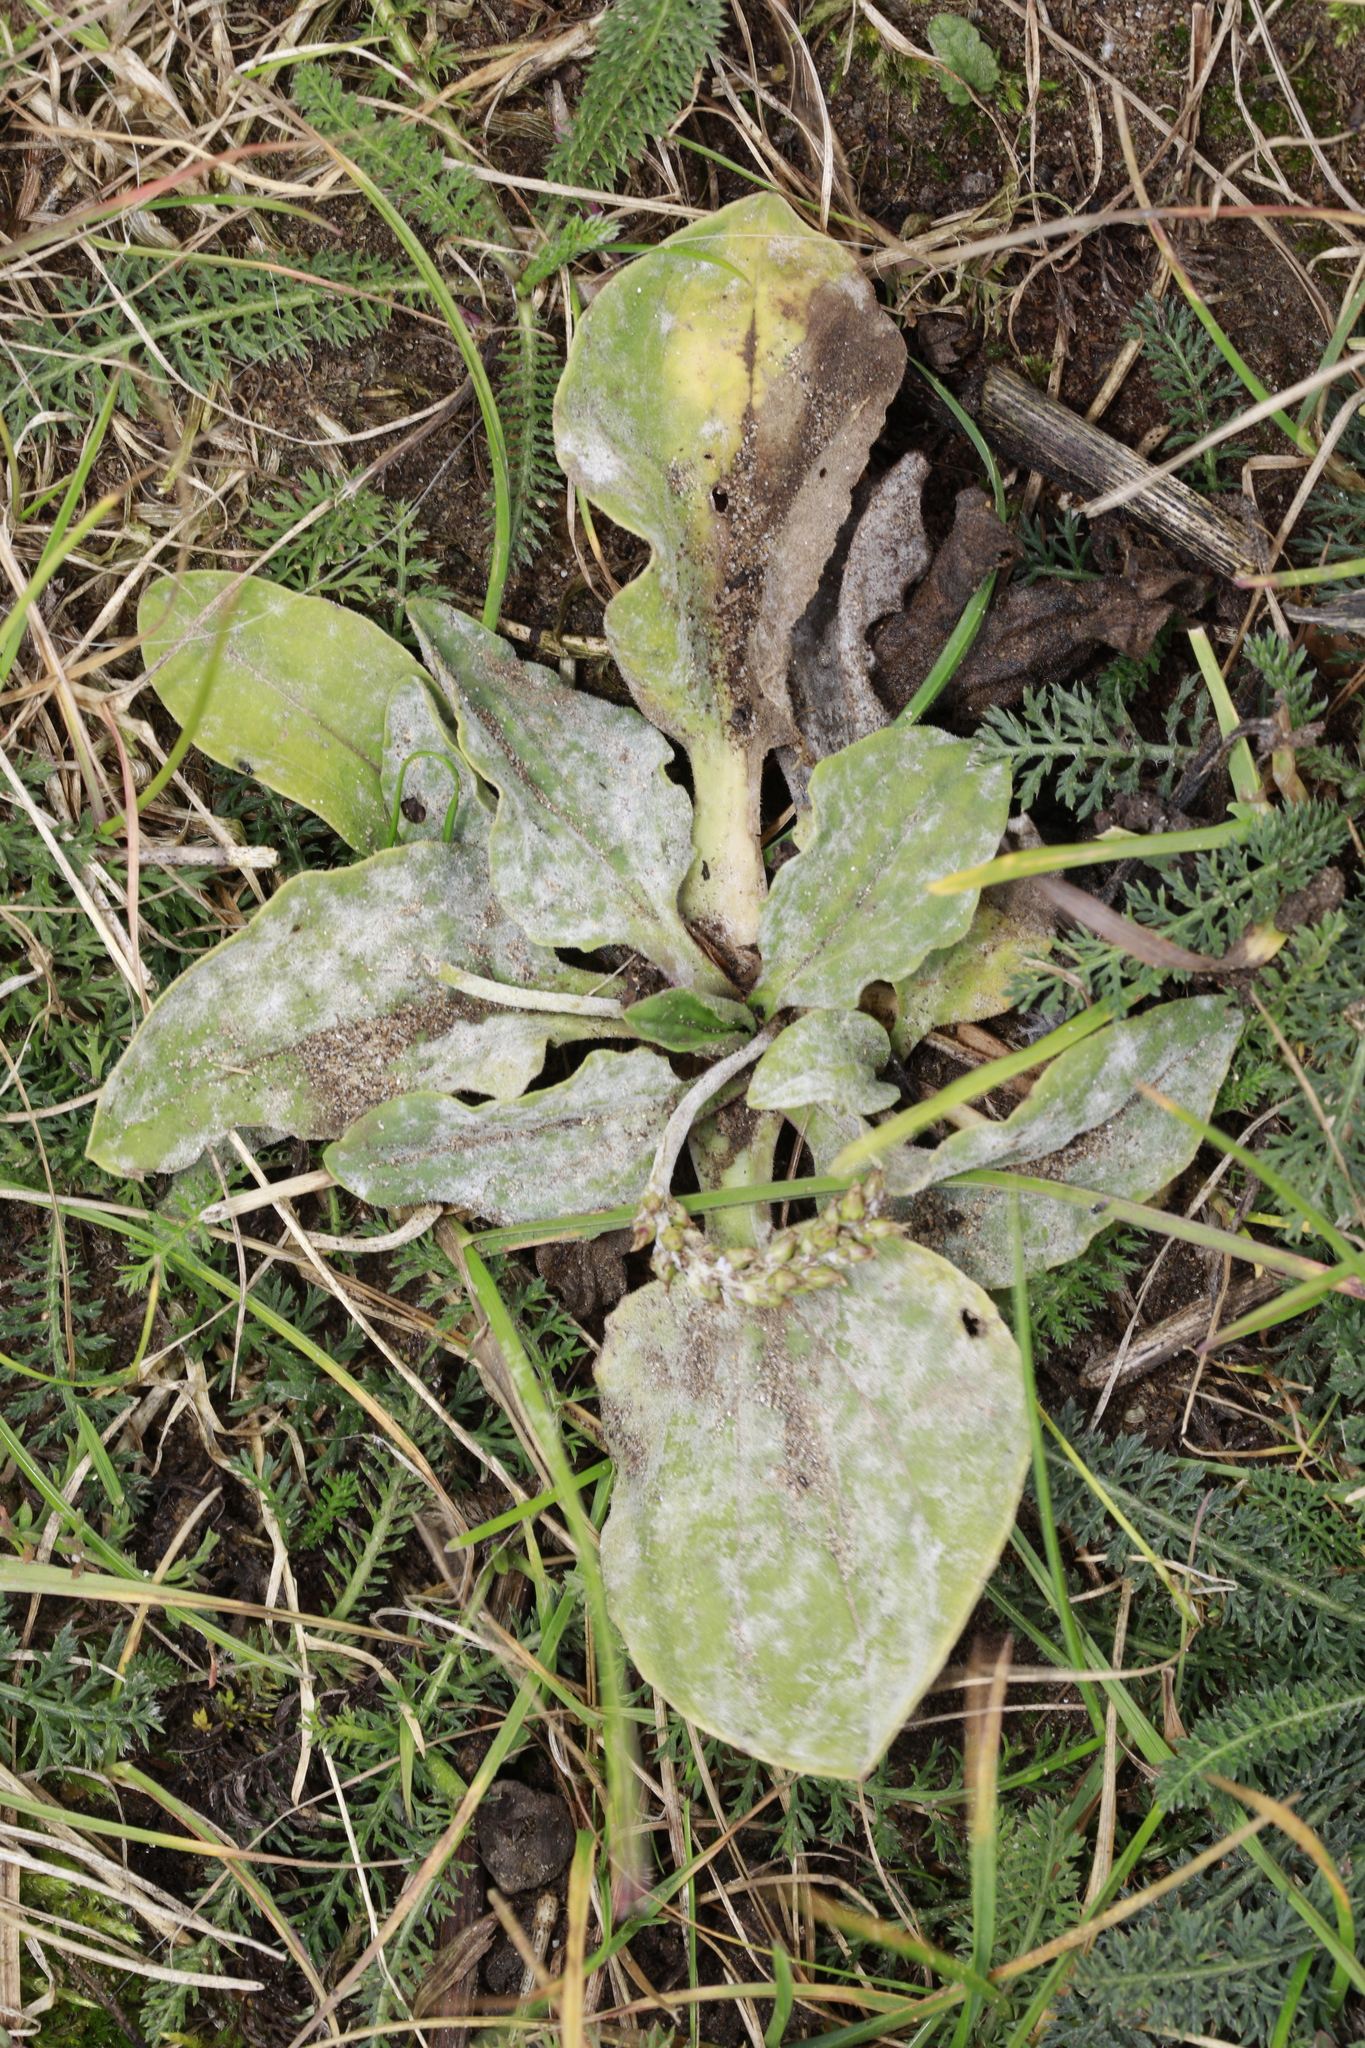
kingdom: Fungi
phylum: Ascomycota
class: Leotiomycetes
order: Helotiales
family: Erysiphaceae
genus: Golovinomyces
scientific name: Golovinomyces sordidus
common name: Plantain mildew
